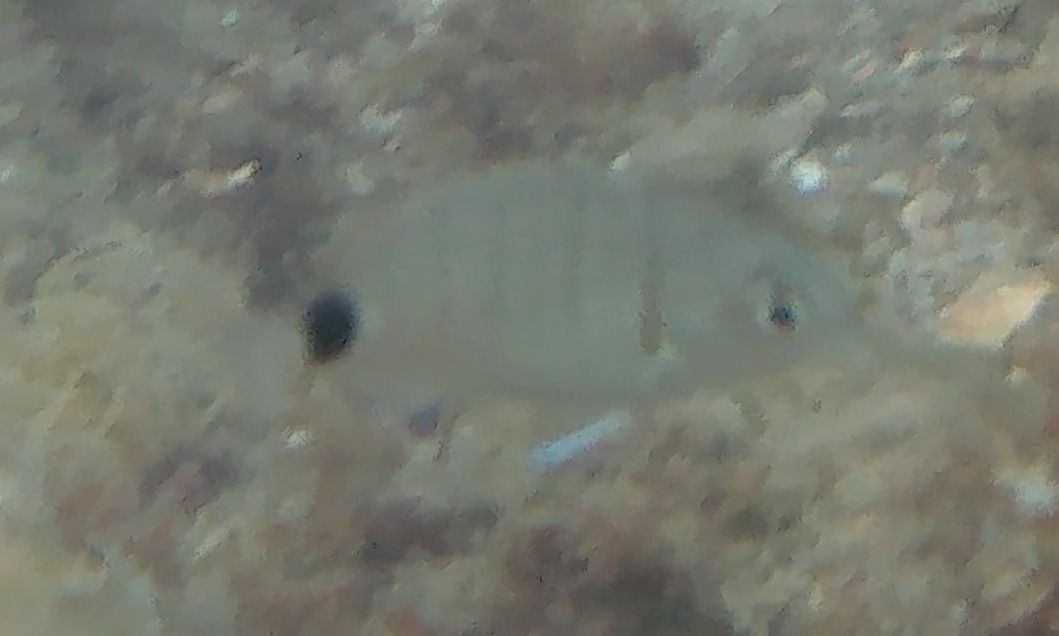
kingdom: Animalia
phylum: Chordata
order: Perciformes
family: Sparidae
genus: Diplodus
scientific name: Diplodus sargus
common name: White seabream
